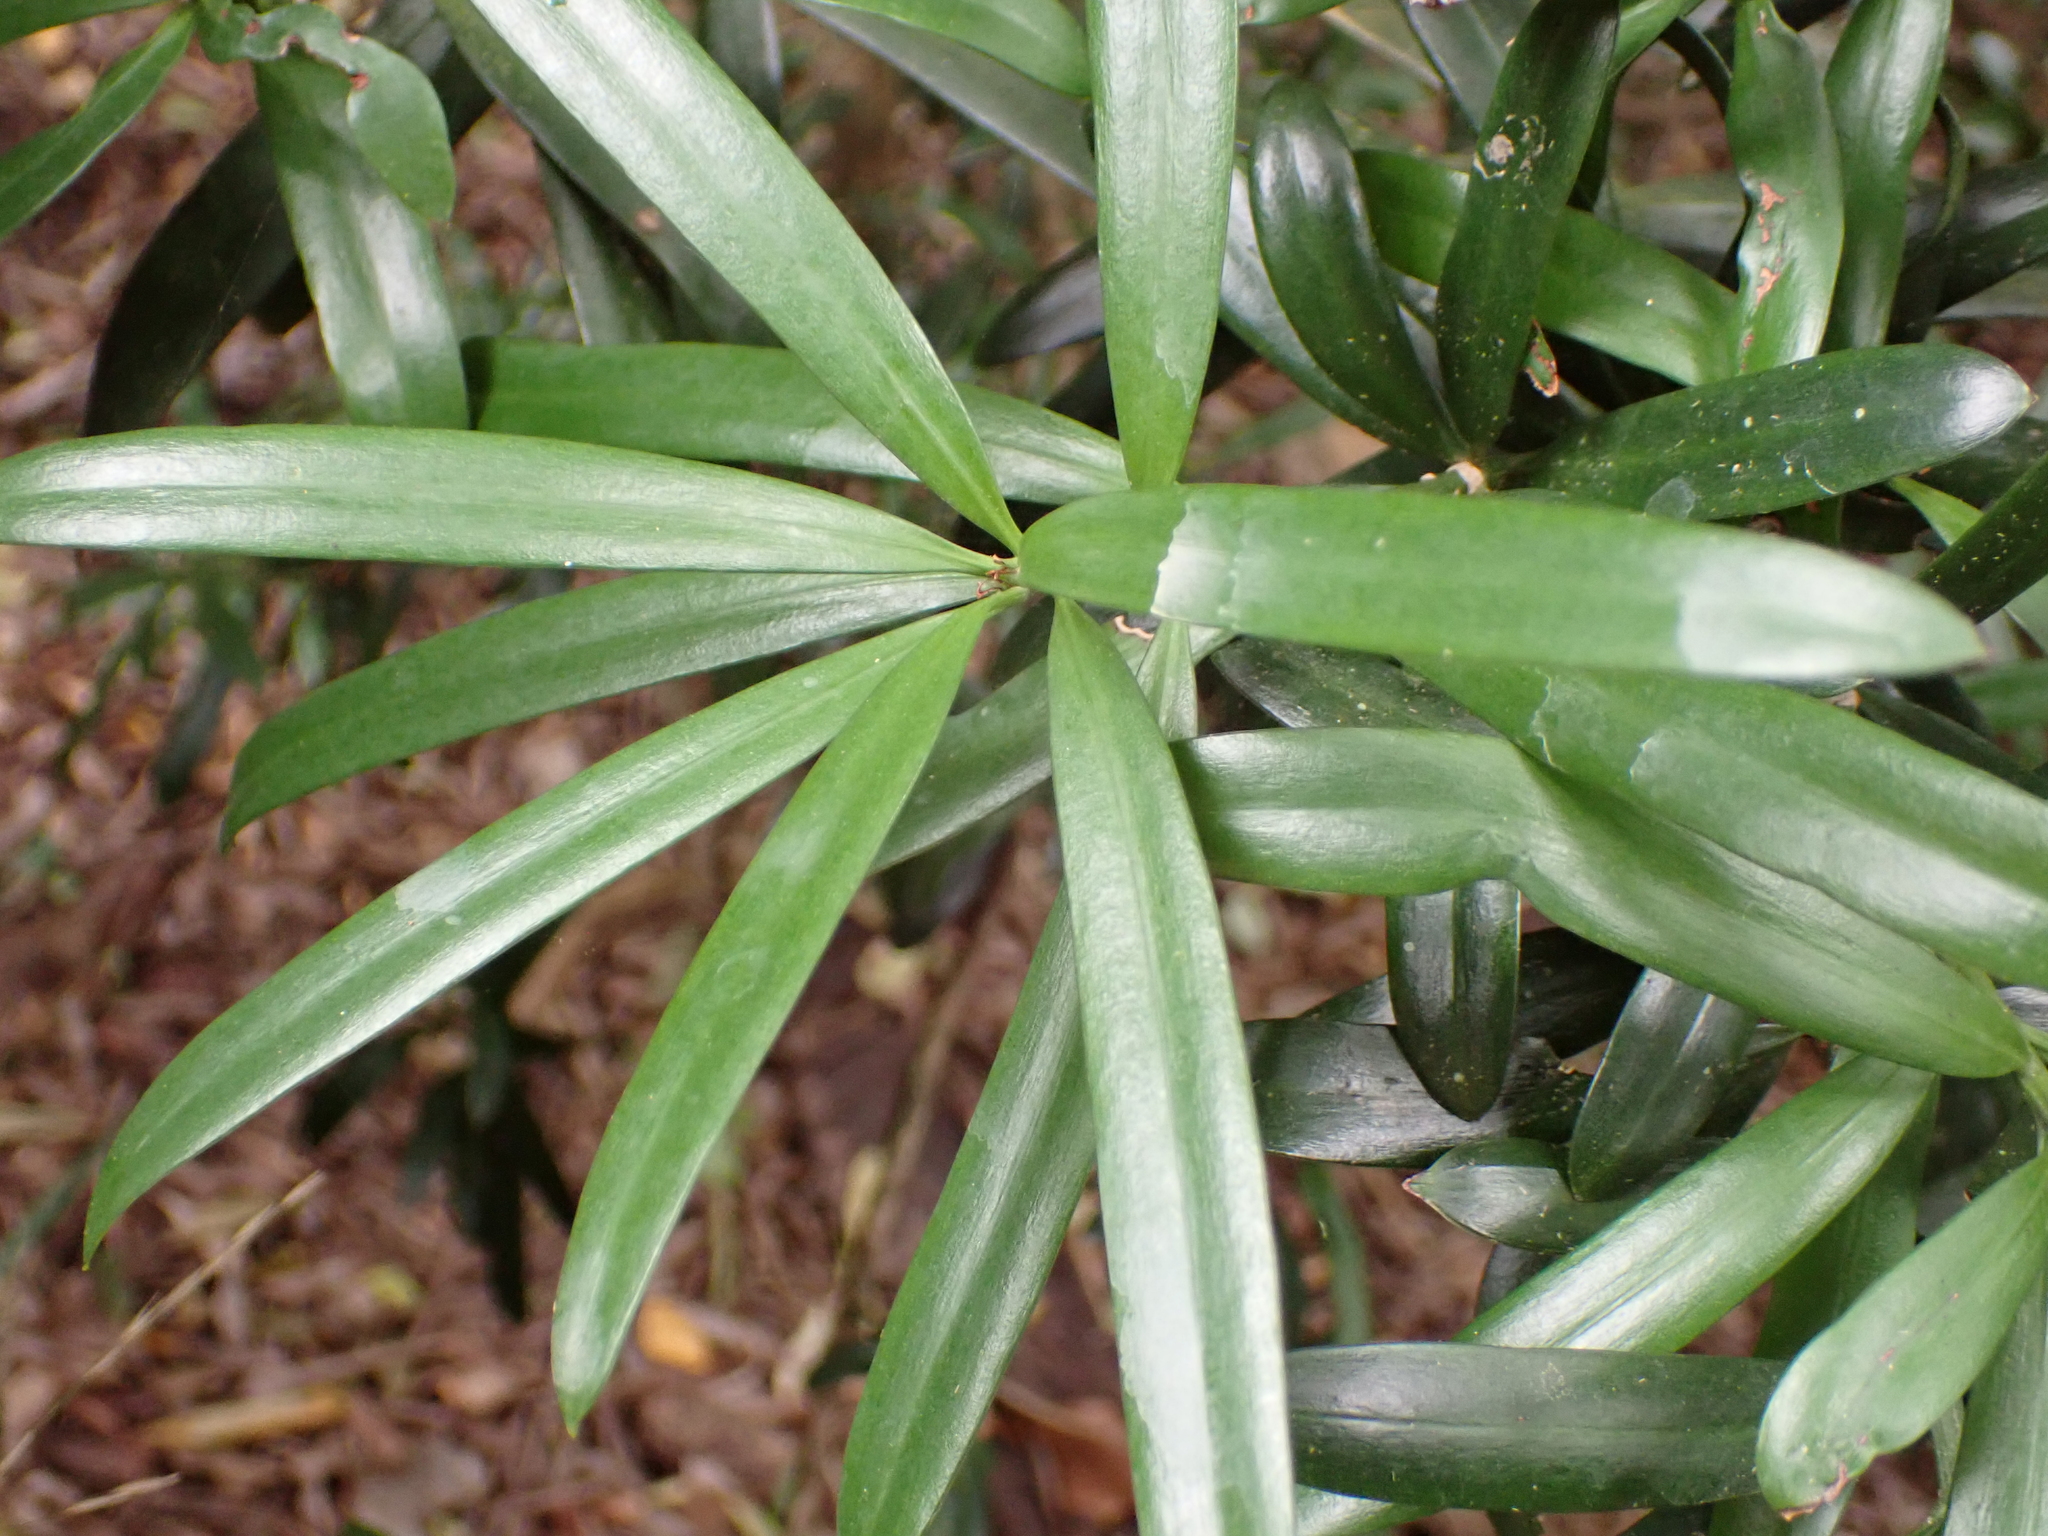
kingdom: Plantae
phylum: Tracheophyta
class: Pinopsida
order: Pinales
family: Podocarpaceae
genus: Podocarpus
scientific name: Podocarpus latifolius
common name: True yellowwood
